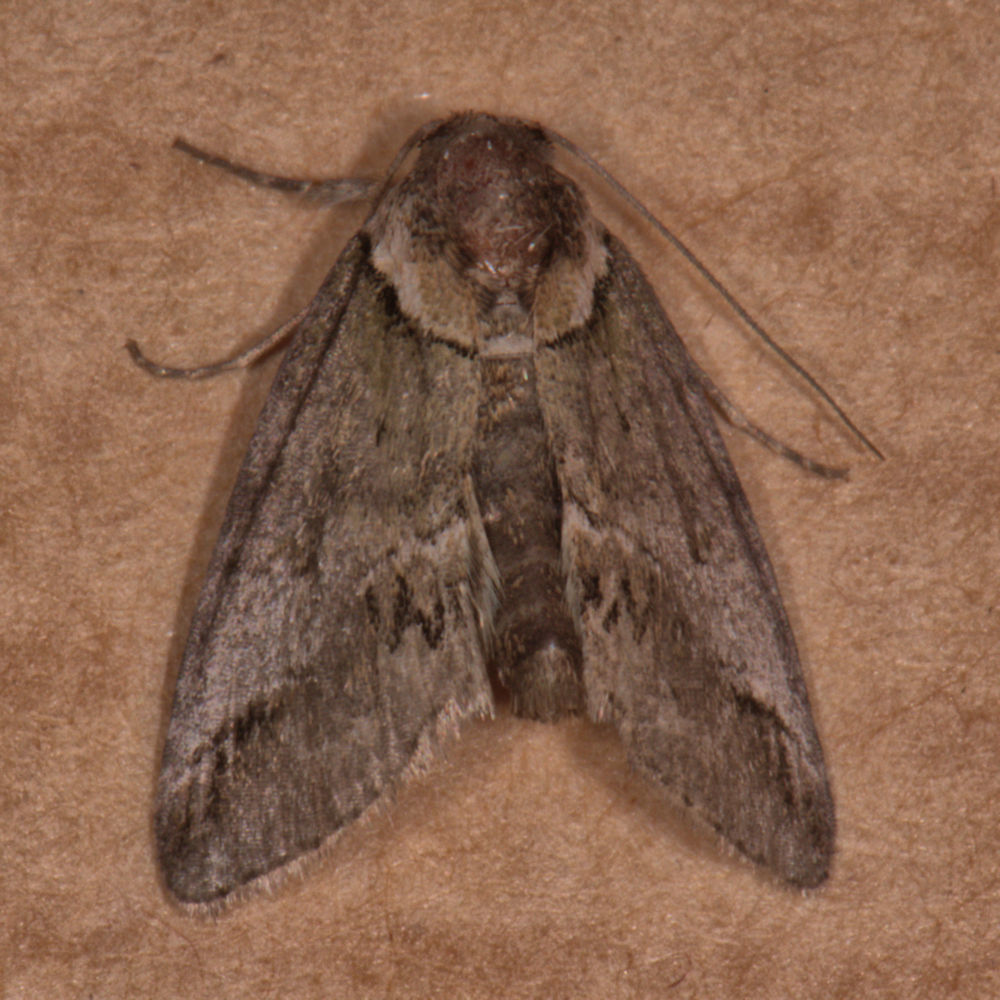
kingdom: Animalia
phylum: Arthropoda
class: Insecta
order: Lepidoptera
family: Nolidae
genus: Baileya
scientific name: Baileya australis
